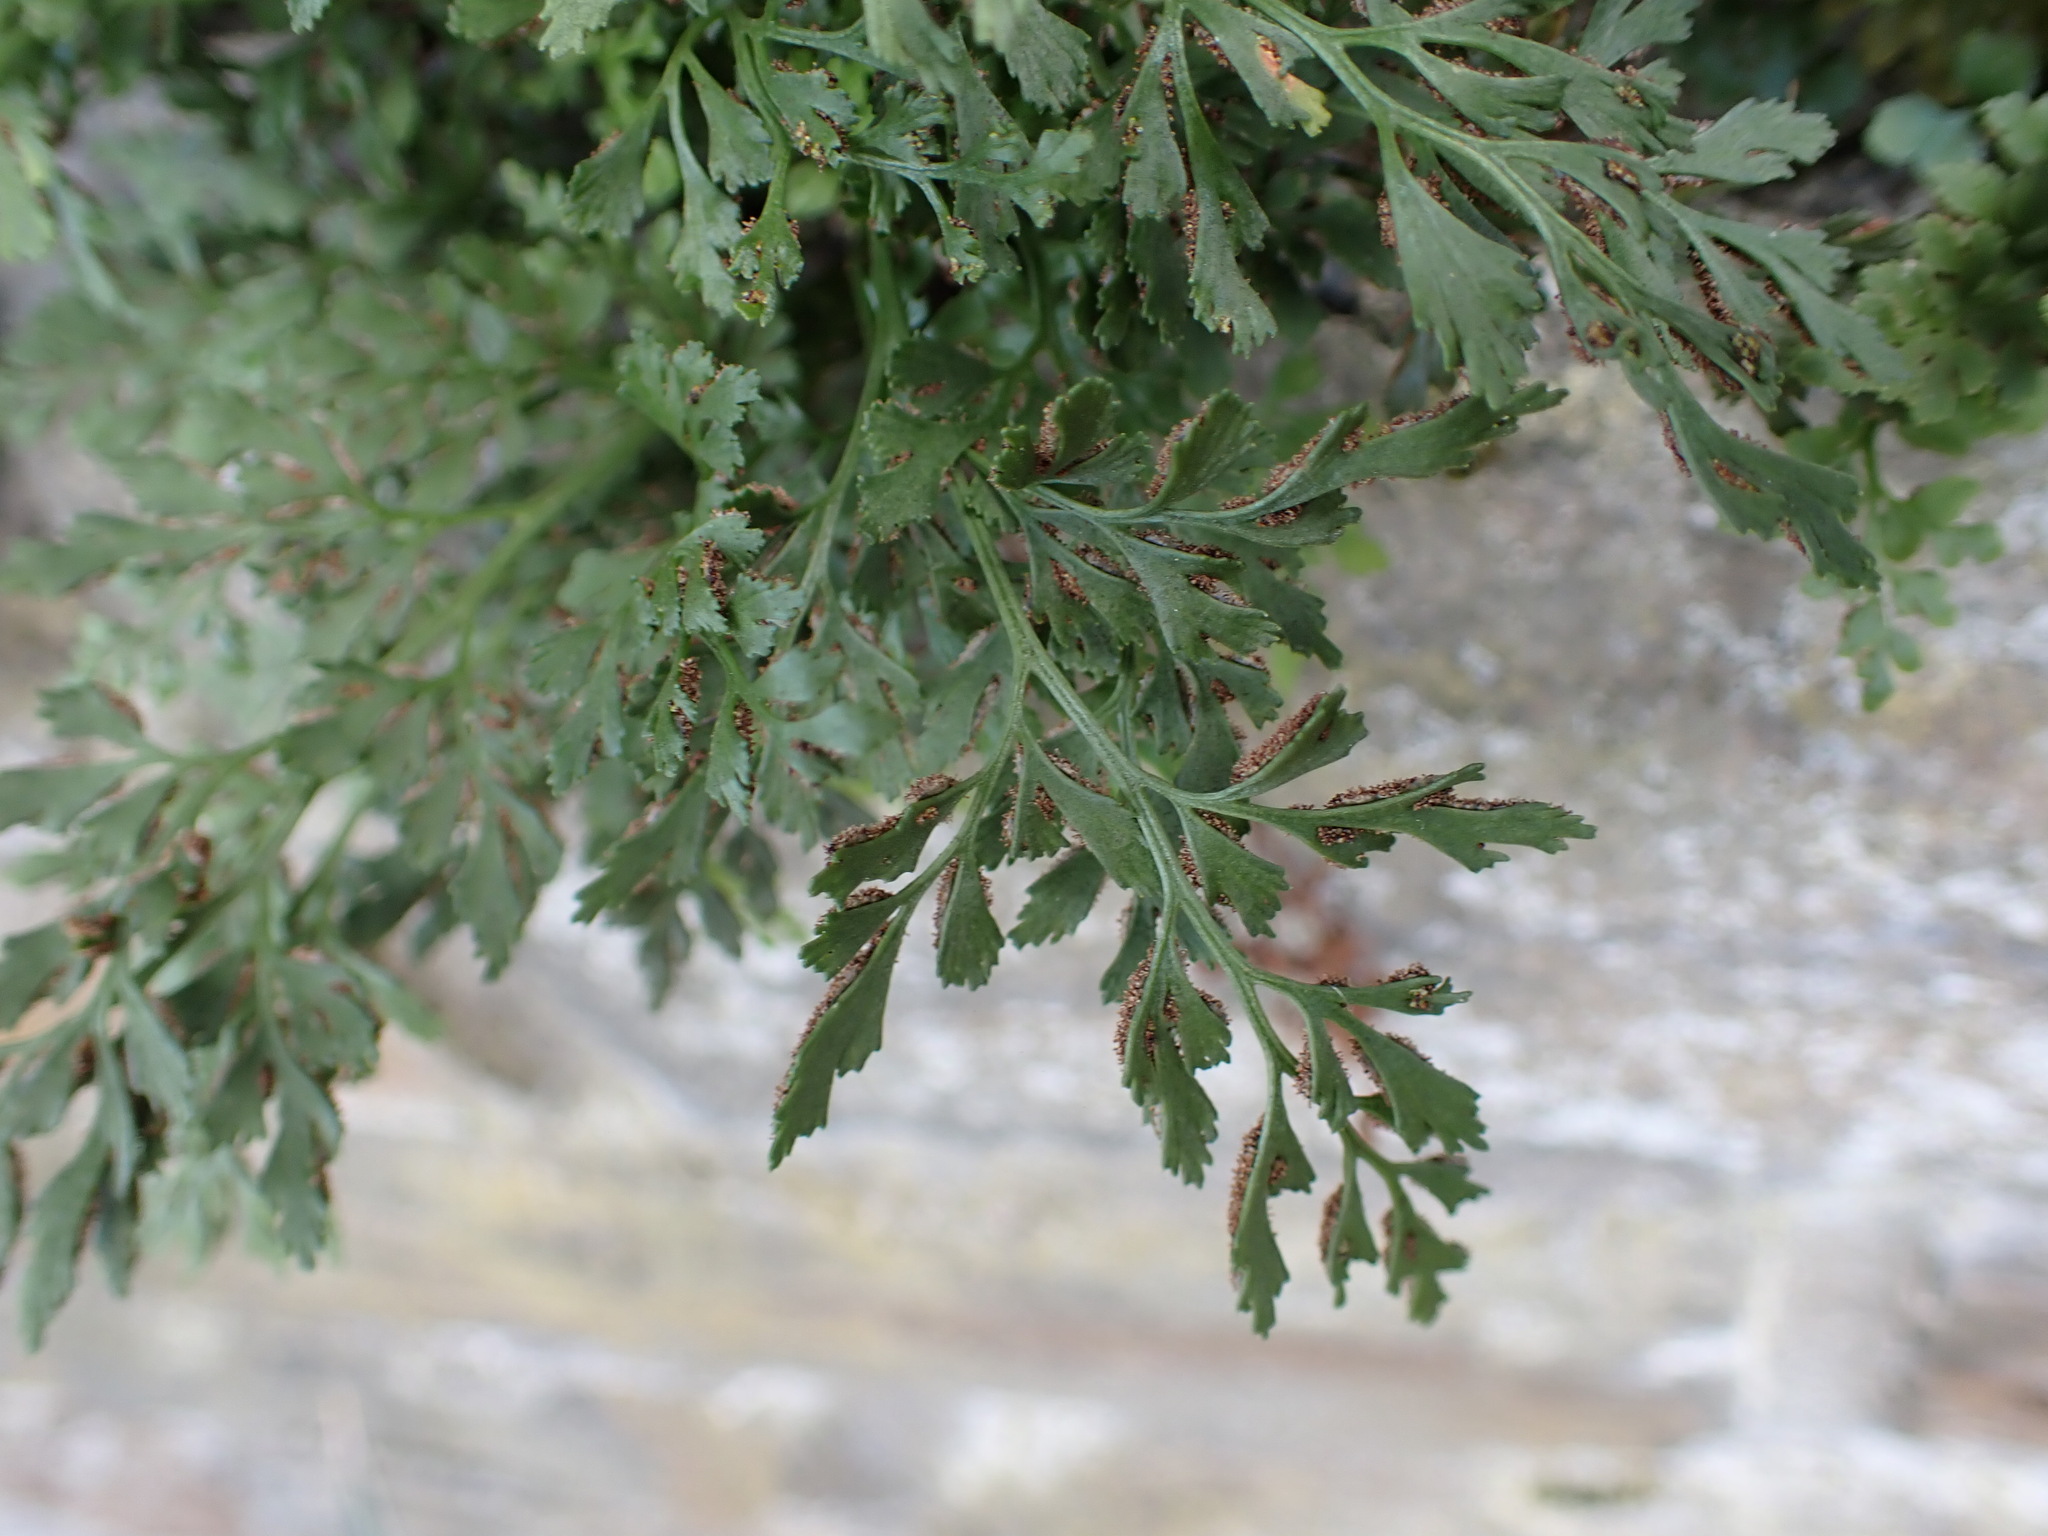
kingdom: Plantae
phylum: Tracheophyta
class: Polypodiopsida
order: Polypodiales
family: Aspleniaceae
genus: Asplenium
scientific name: Asplenium ruta-muraria
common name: Wall-rue
